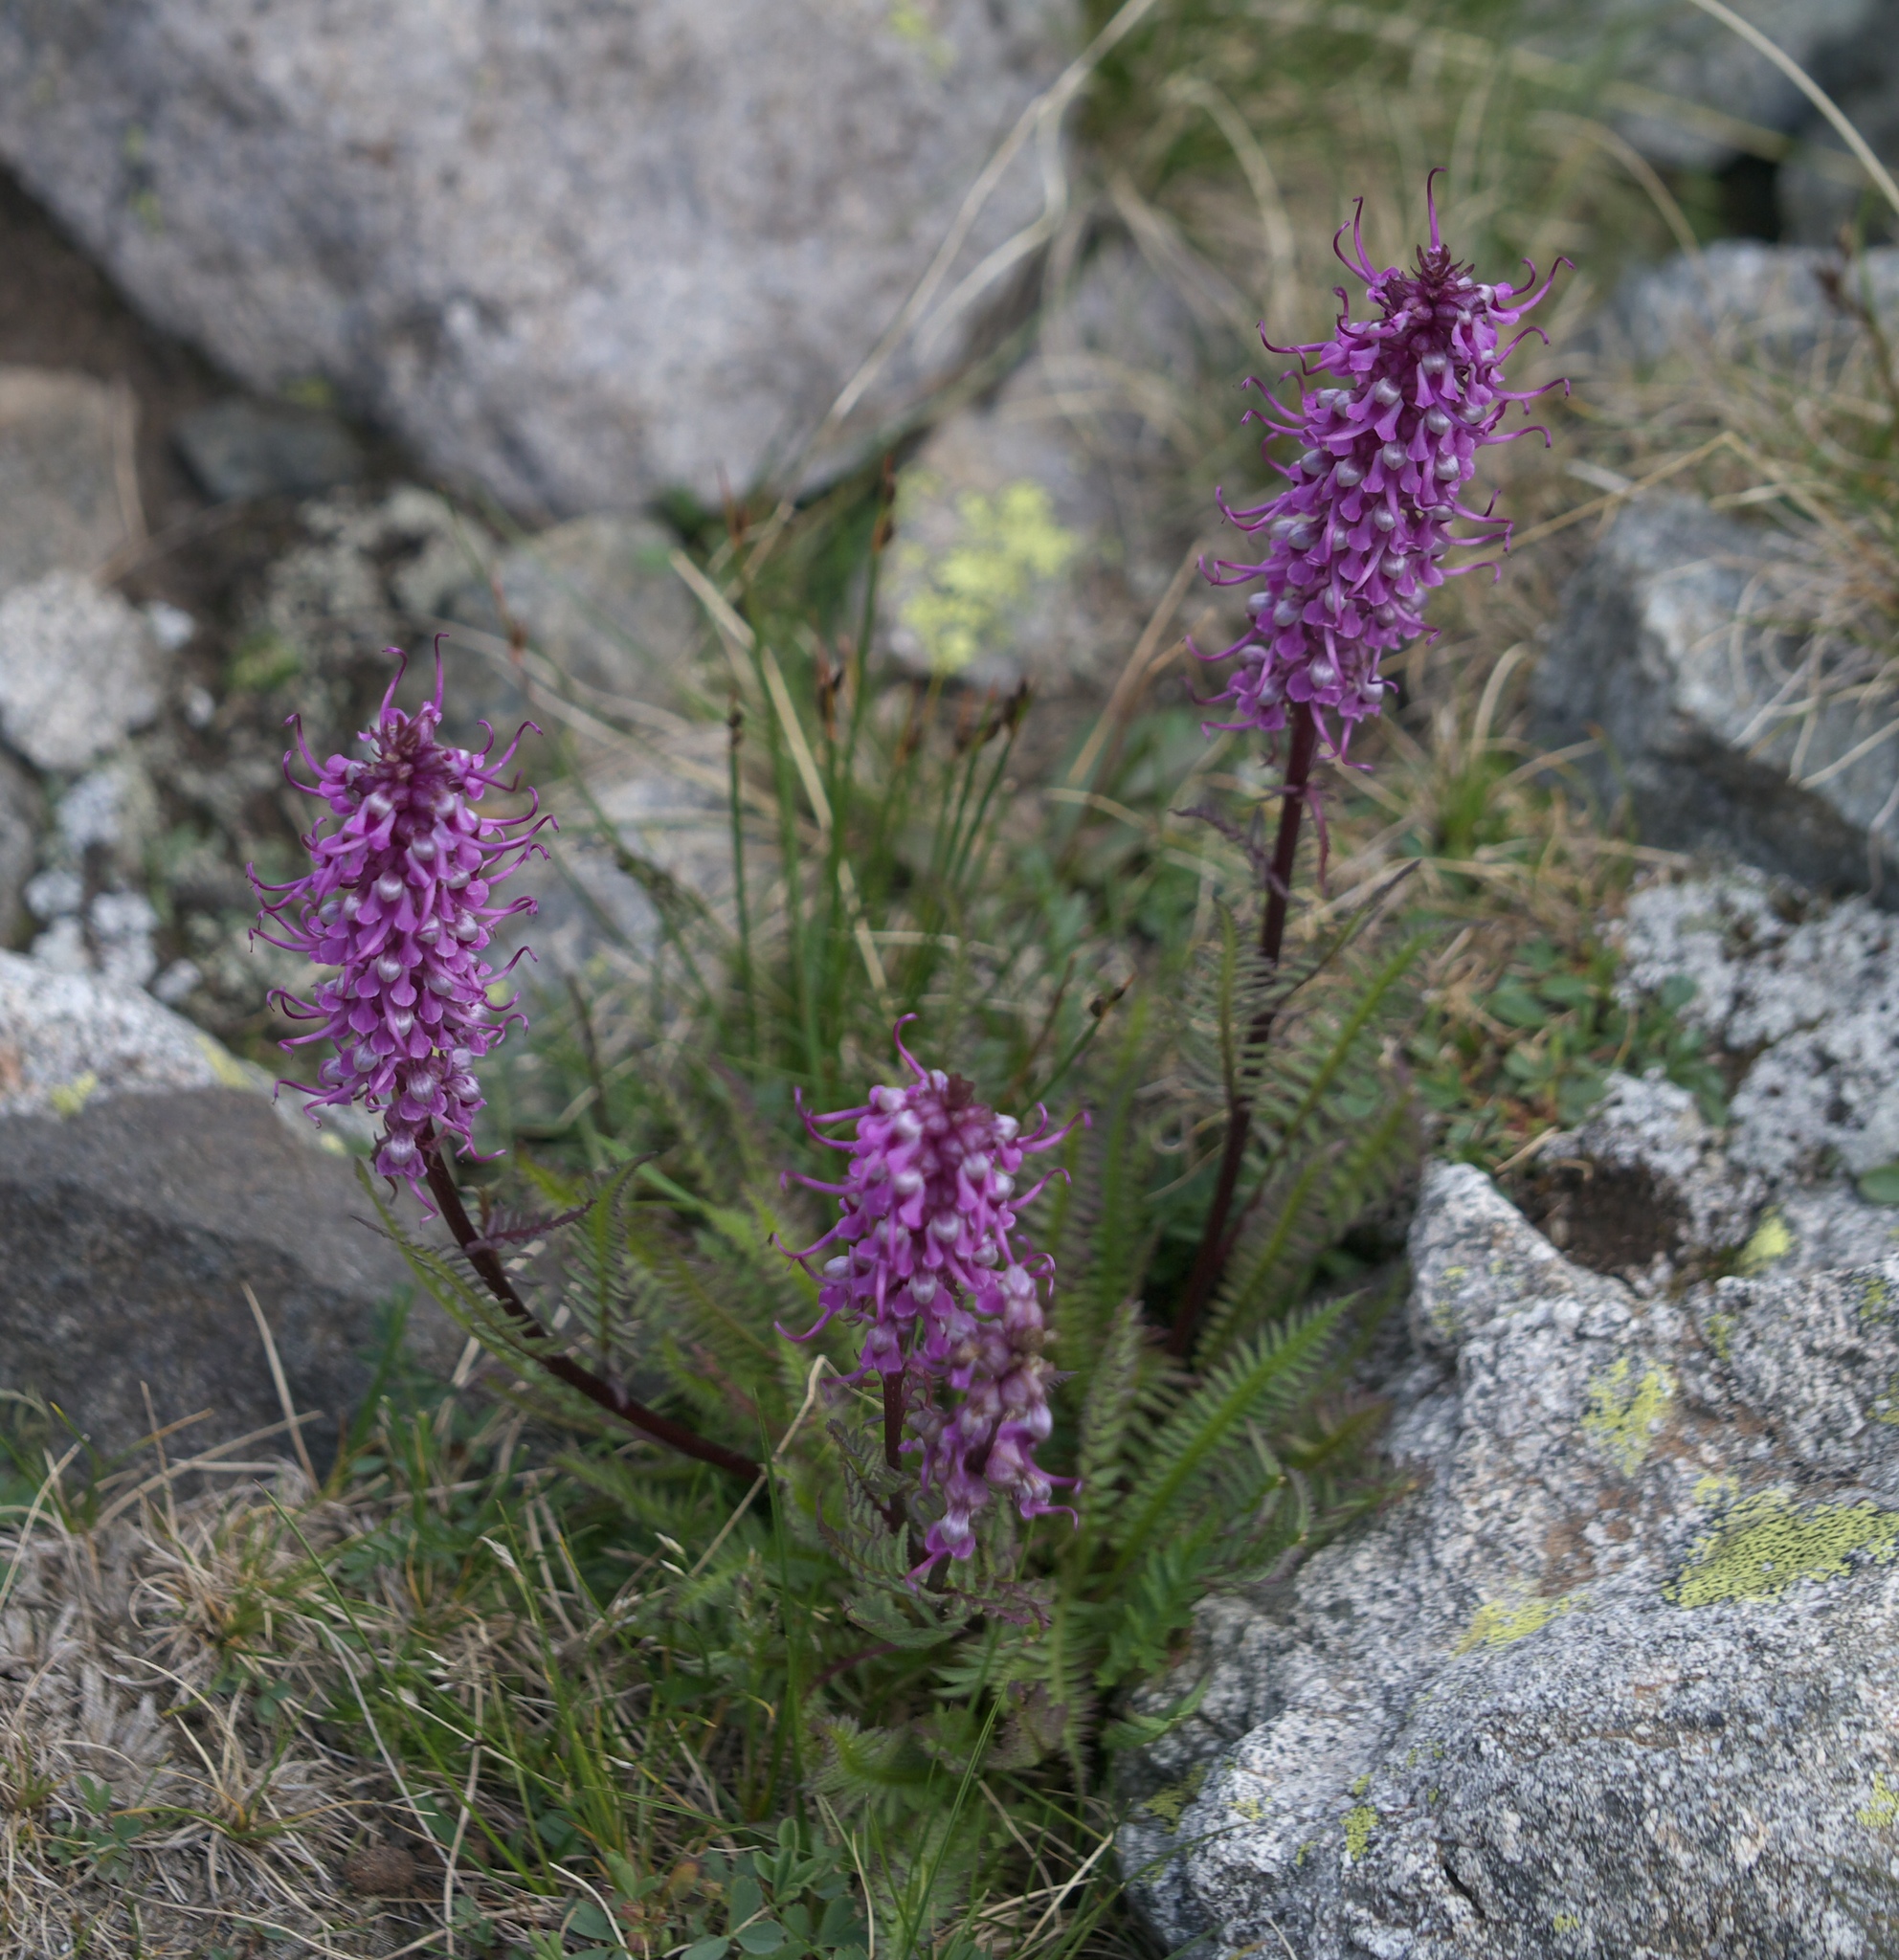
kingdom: Plantae
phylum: Tracheophyta
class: Magnoliopsida
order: Lamiales
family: Orobanchaceae
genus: Pedicularis
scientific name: Pedicularis groenlandica
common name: Elephant's-head
